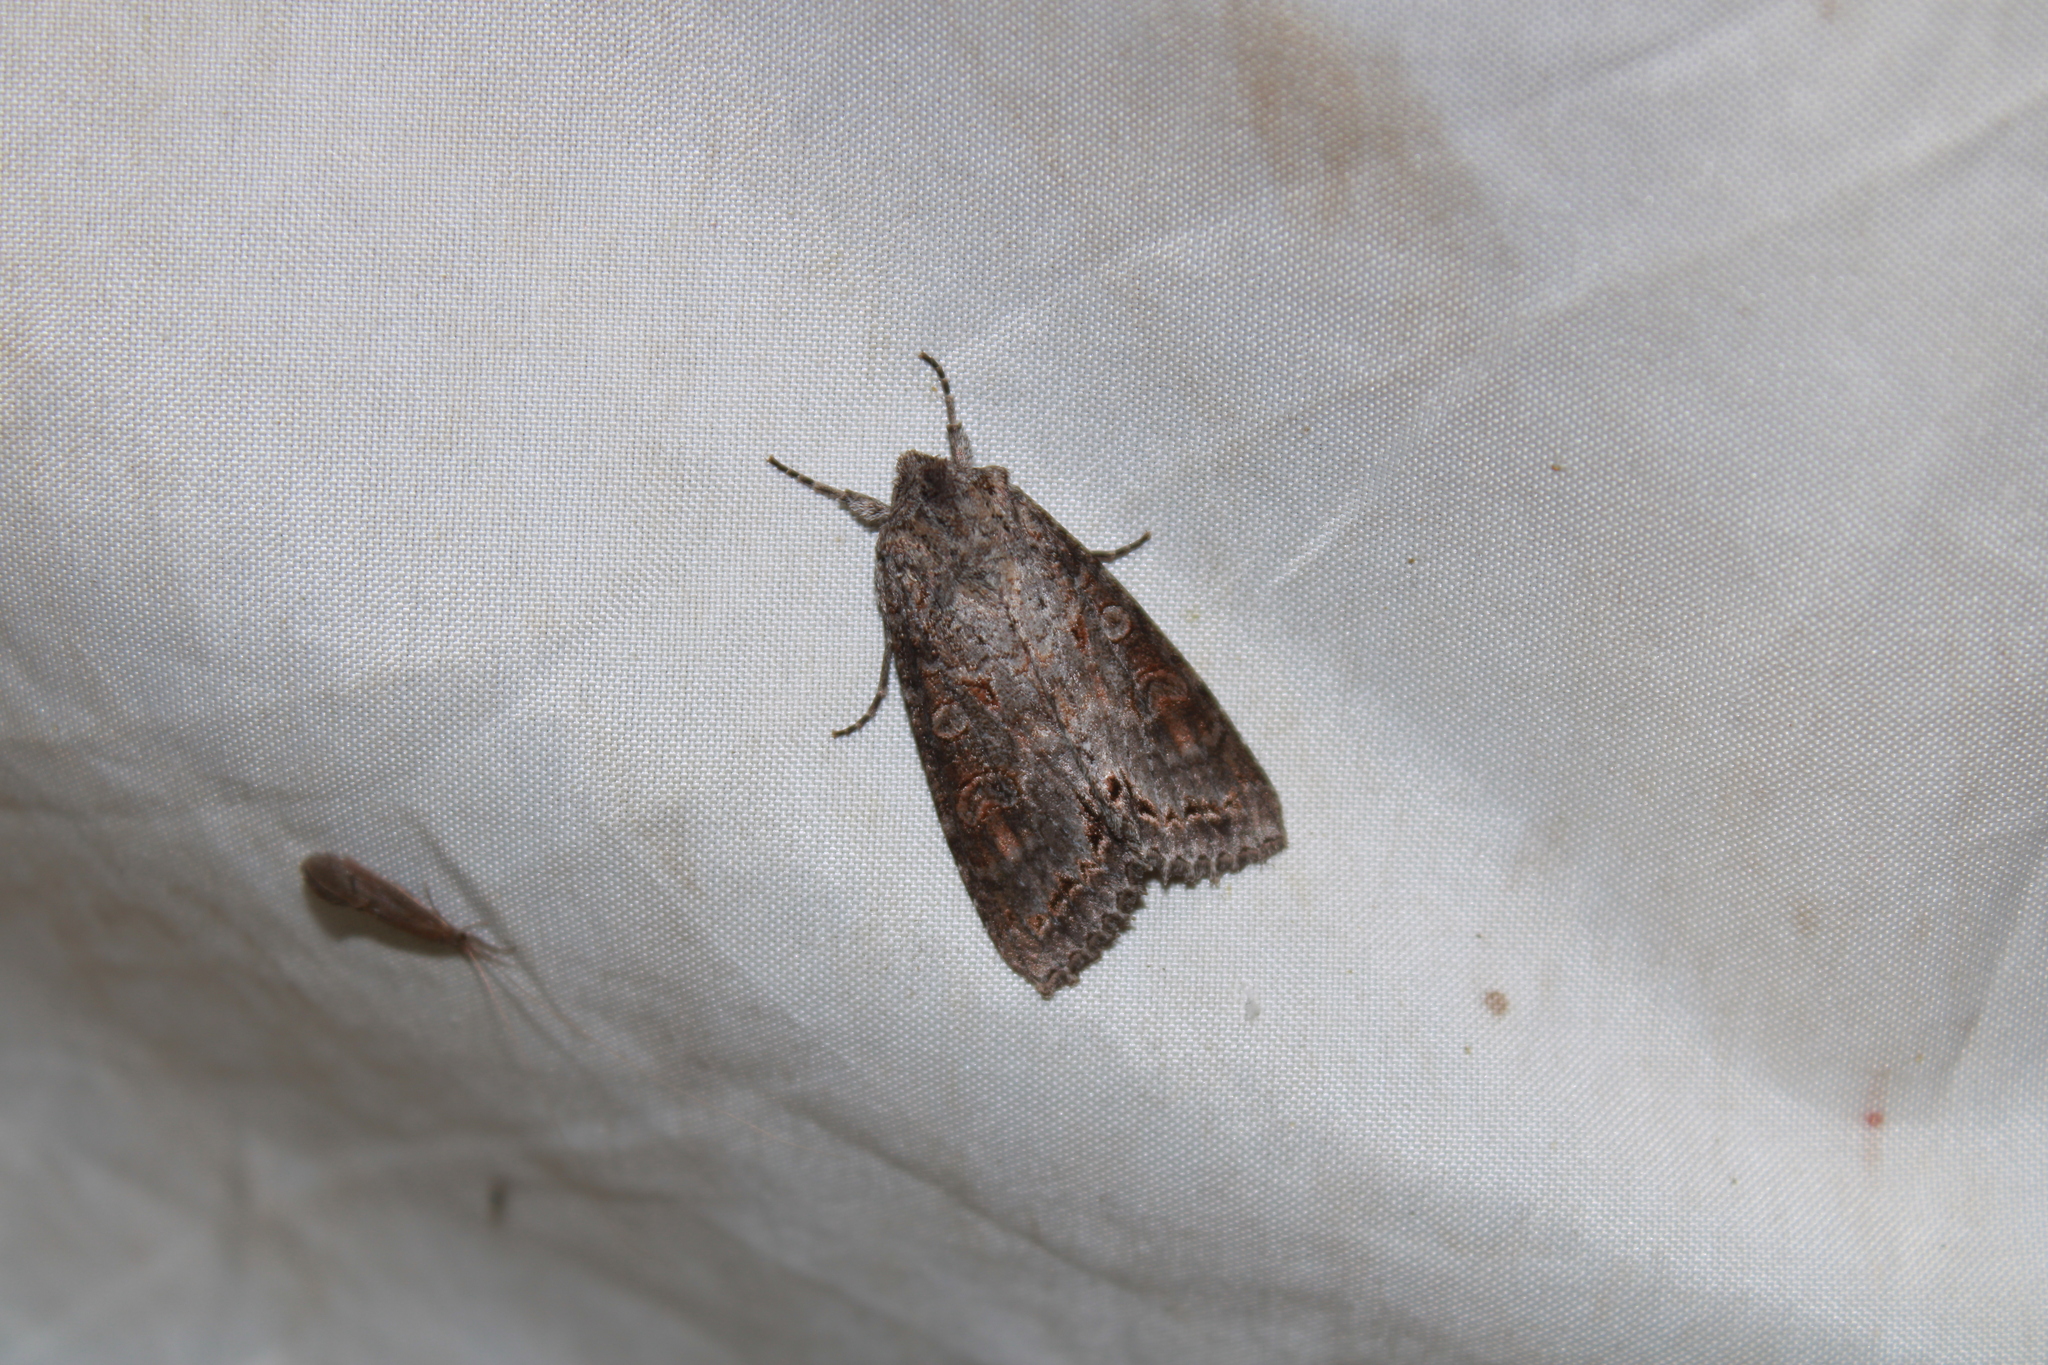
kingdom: Animalia
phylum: Arthropoda
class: Insecta
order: Lepidoptera
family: Noctuidae
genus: Polia
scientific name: Polia purpurissata
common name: Purple arches moth
